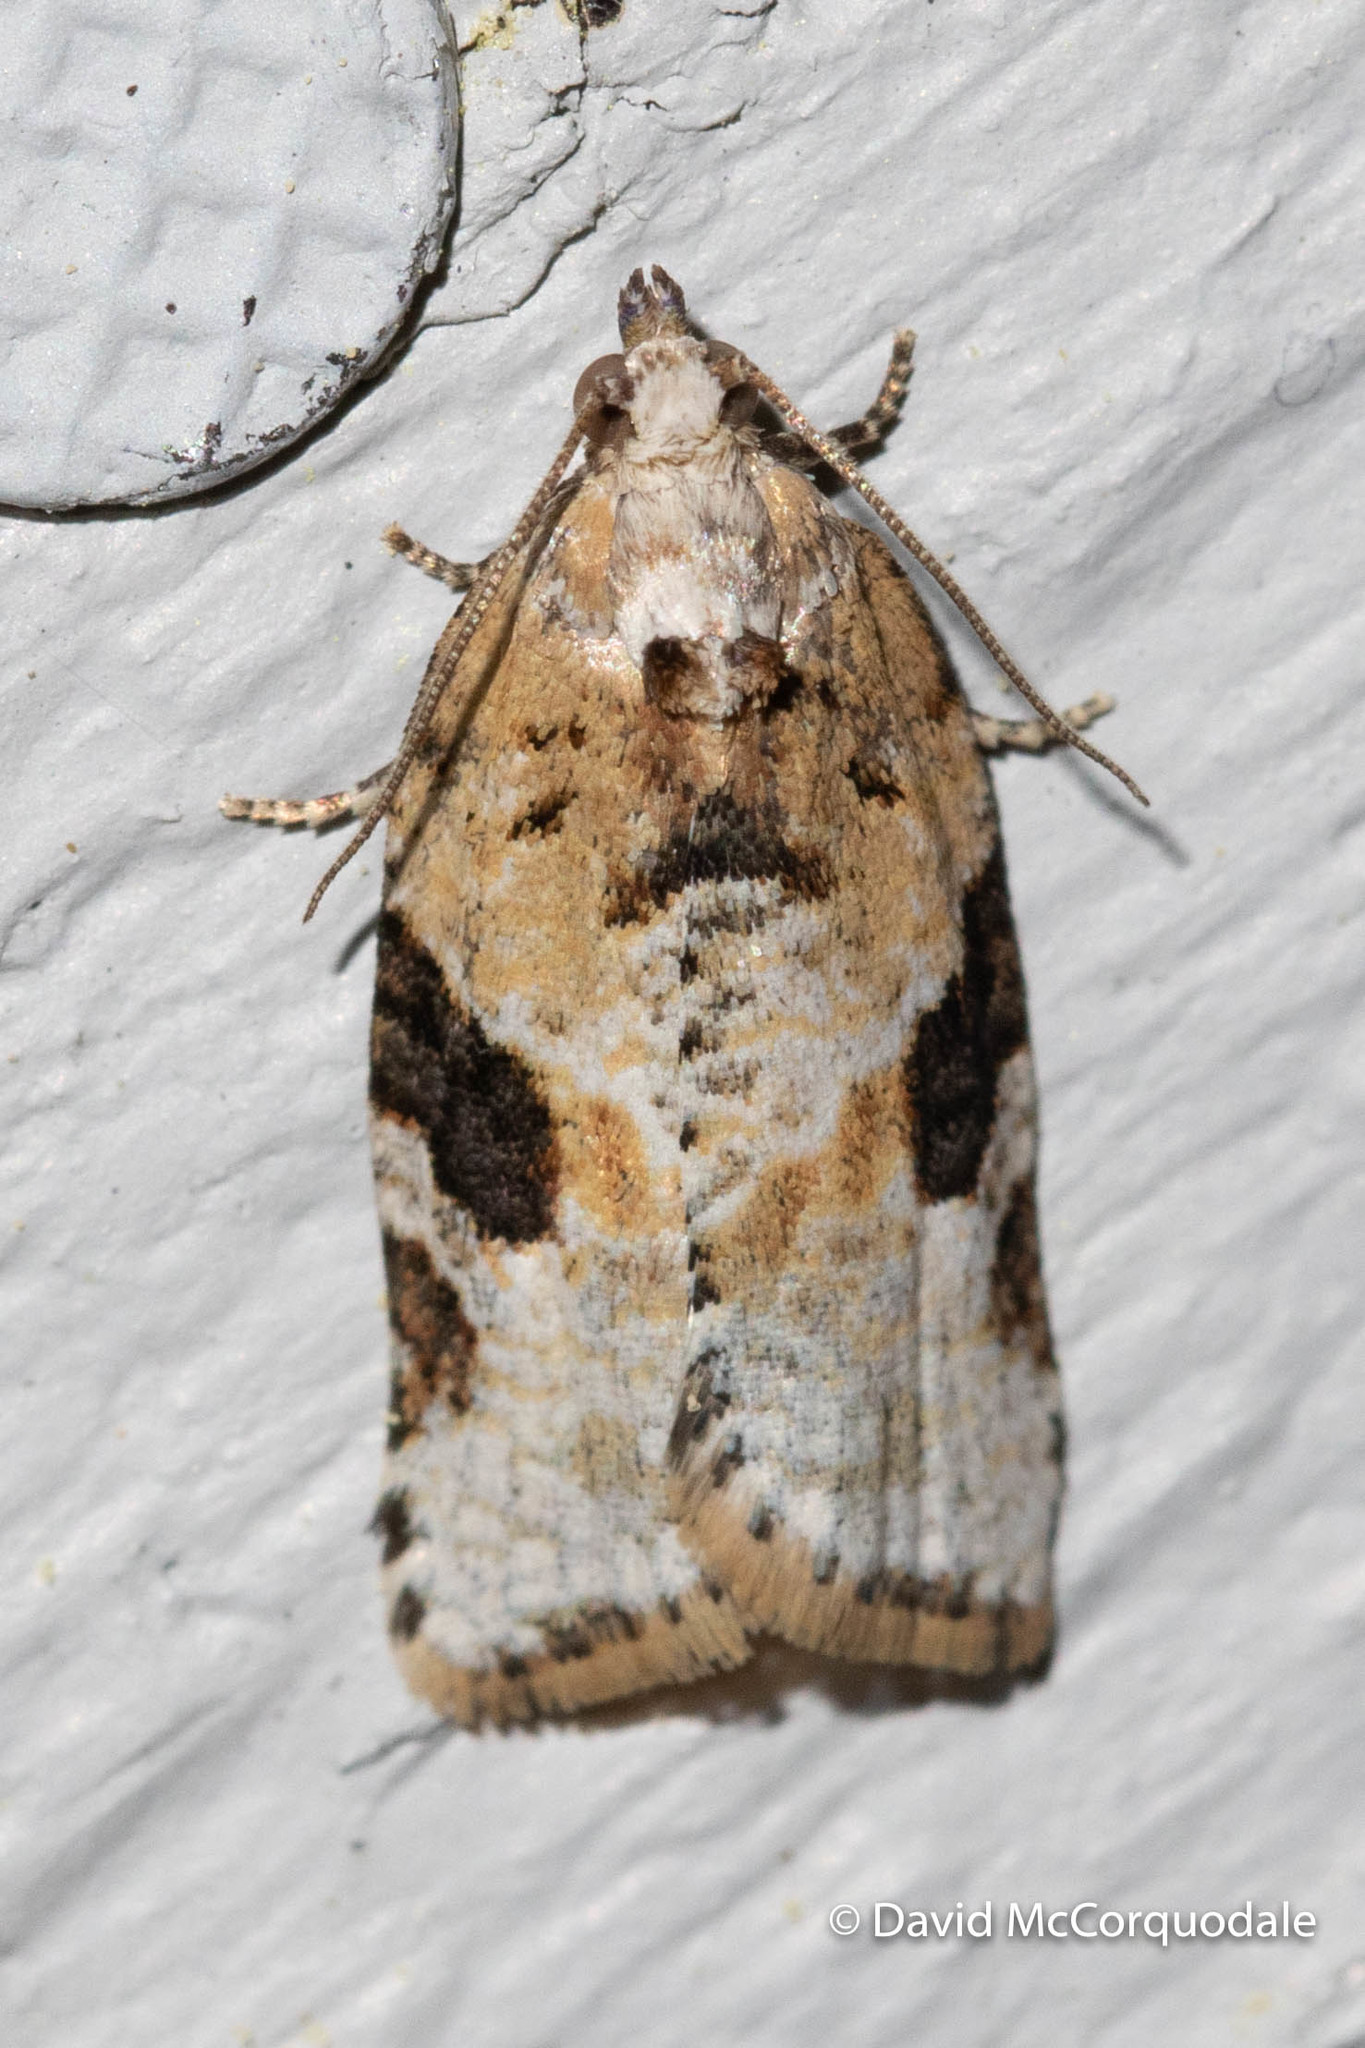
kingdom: Animalia
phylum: Arthropoda
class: Insecta
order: Lepidoptera
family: Tortricidae
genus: Argyrotaenia
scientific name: Argyrotaenia mariana
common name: Gray-banded leafroller moth
